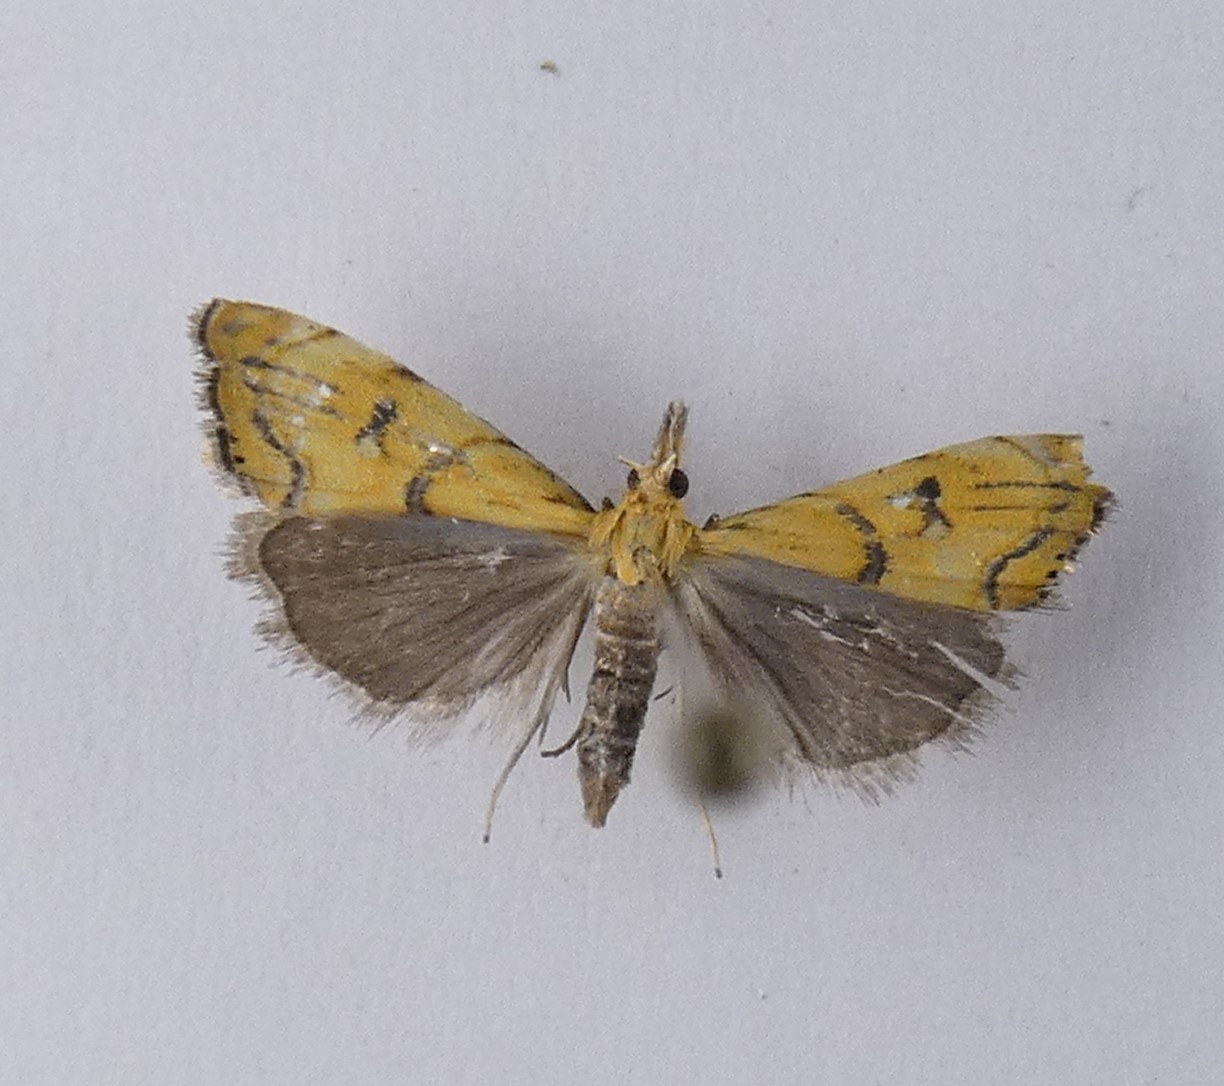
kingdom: Animalia
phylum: Arthropoda
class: Insecta
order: Lepidoptera
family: Crambidae
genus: Glaucocharis
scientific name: Glaucocharis auriscriptella
